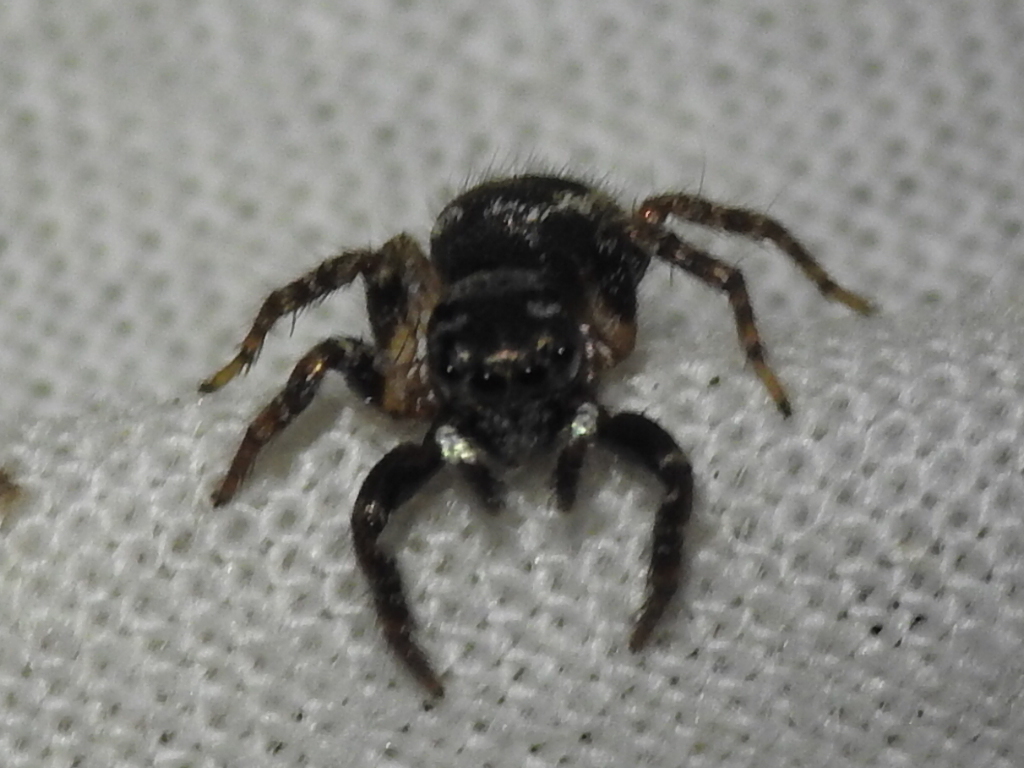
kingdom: Animalia
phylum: Arthropoda
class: Arachnida
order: Araneae
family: Salticidae
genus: Anasaitis
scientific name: Anasaitis canosa
